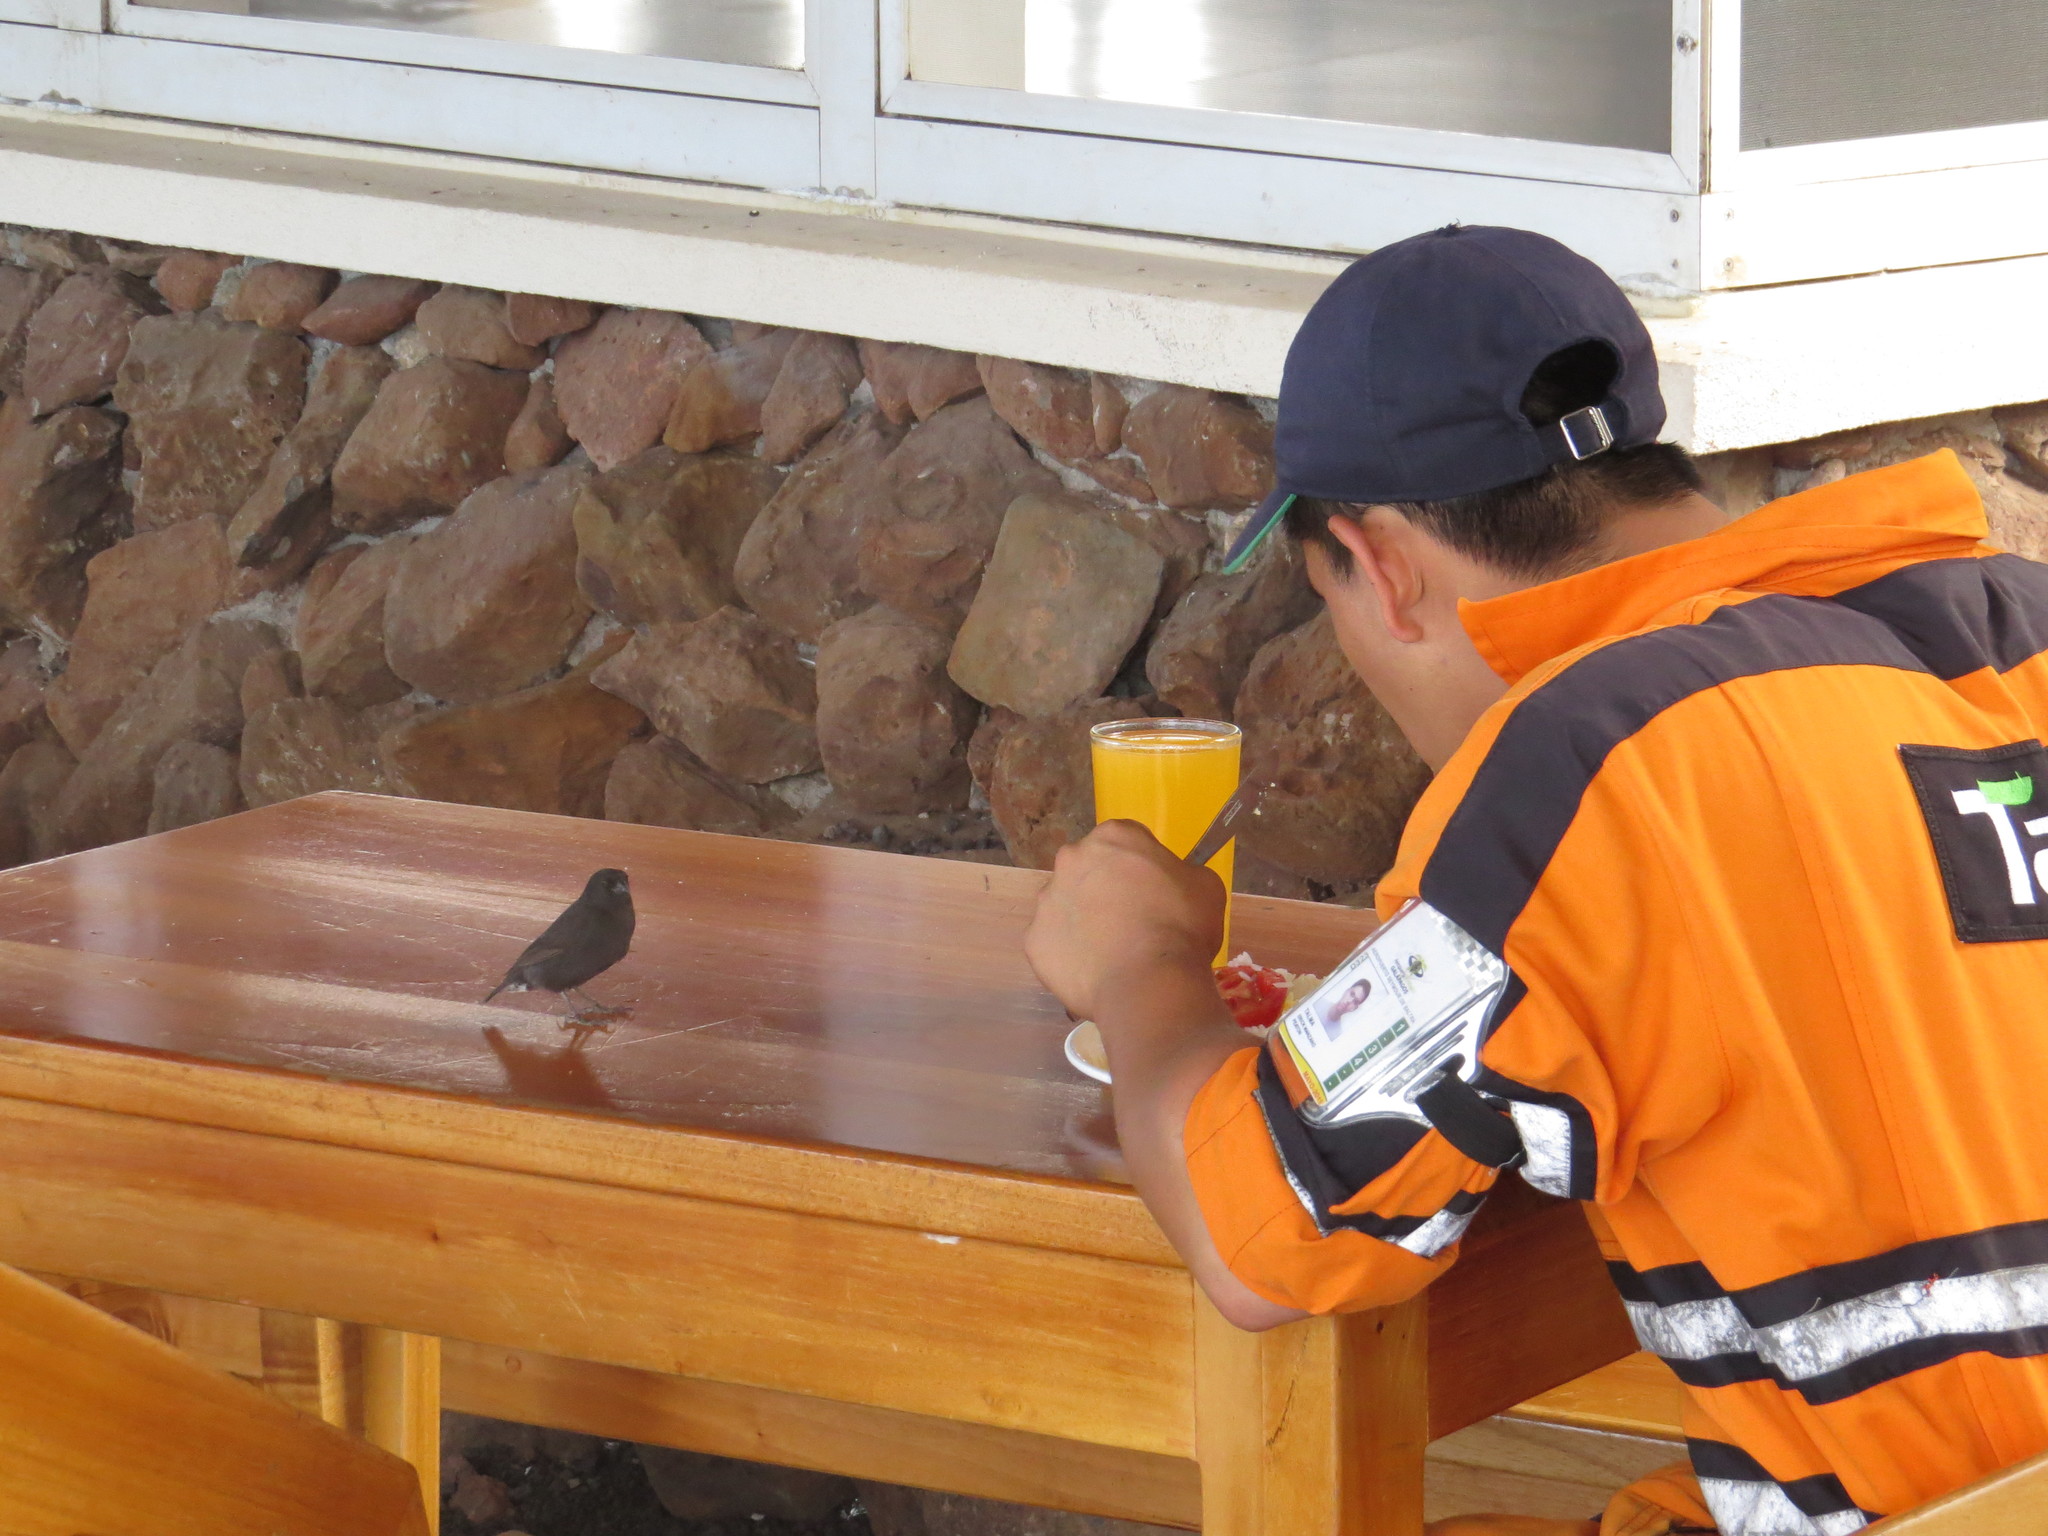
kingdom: Animalia
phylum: Chordata
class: Aves
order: Passeriformes
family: Thraupidae
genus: Geospiza
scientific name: Geospiza fuliginosa
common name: Small ground finch
